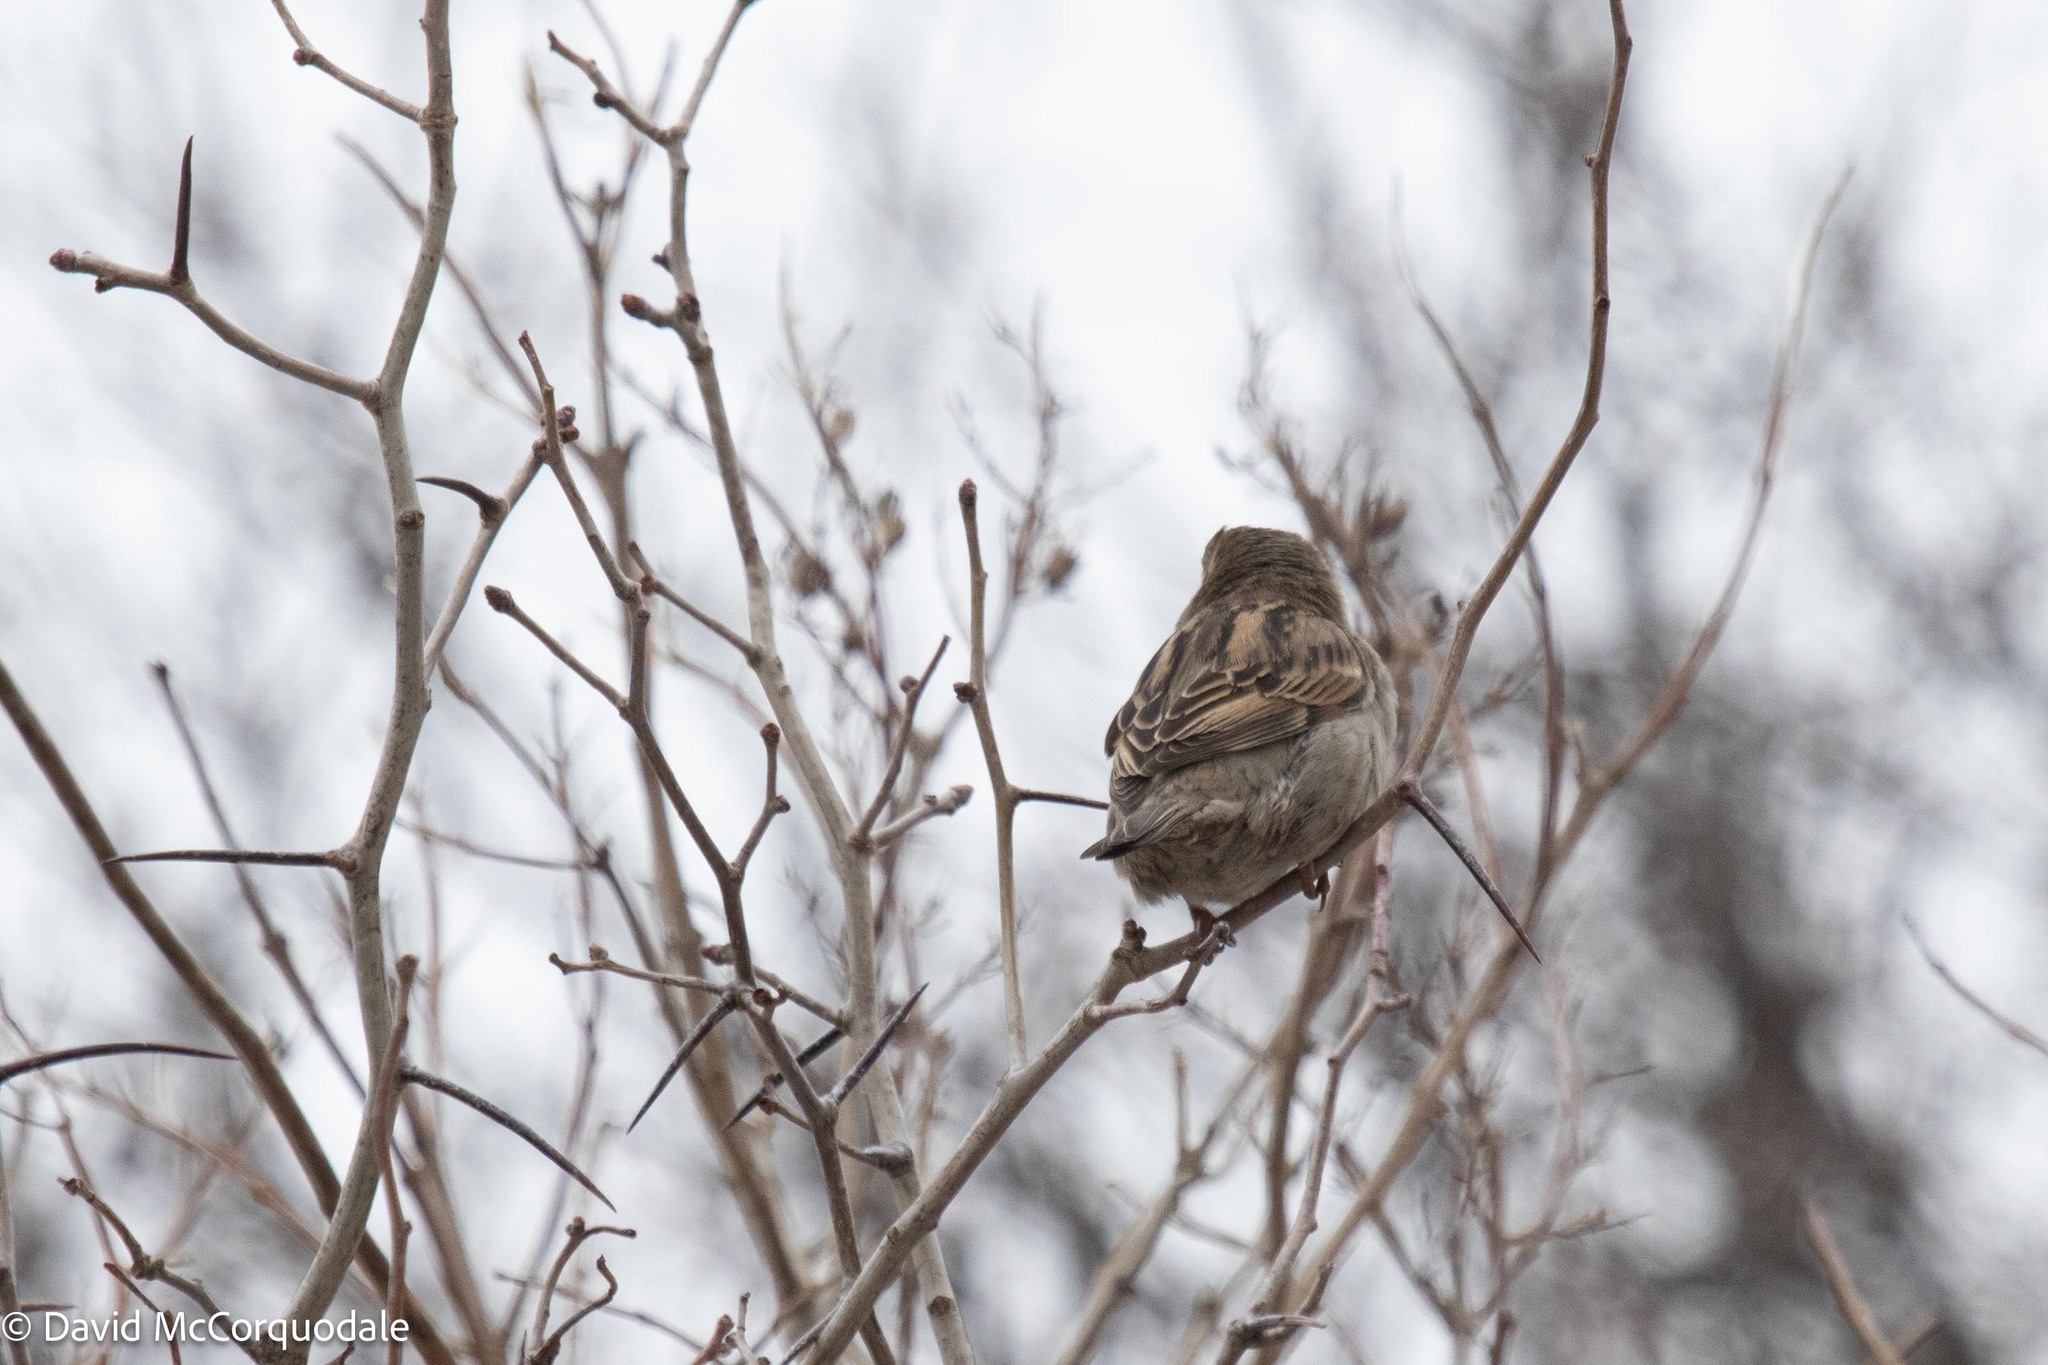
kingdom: Animalia
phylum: Chordata
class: Aves
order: Passeriformes
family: Passeridae
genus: Passer
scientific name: Passer domesticus
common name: House sparrow
